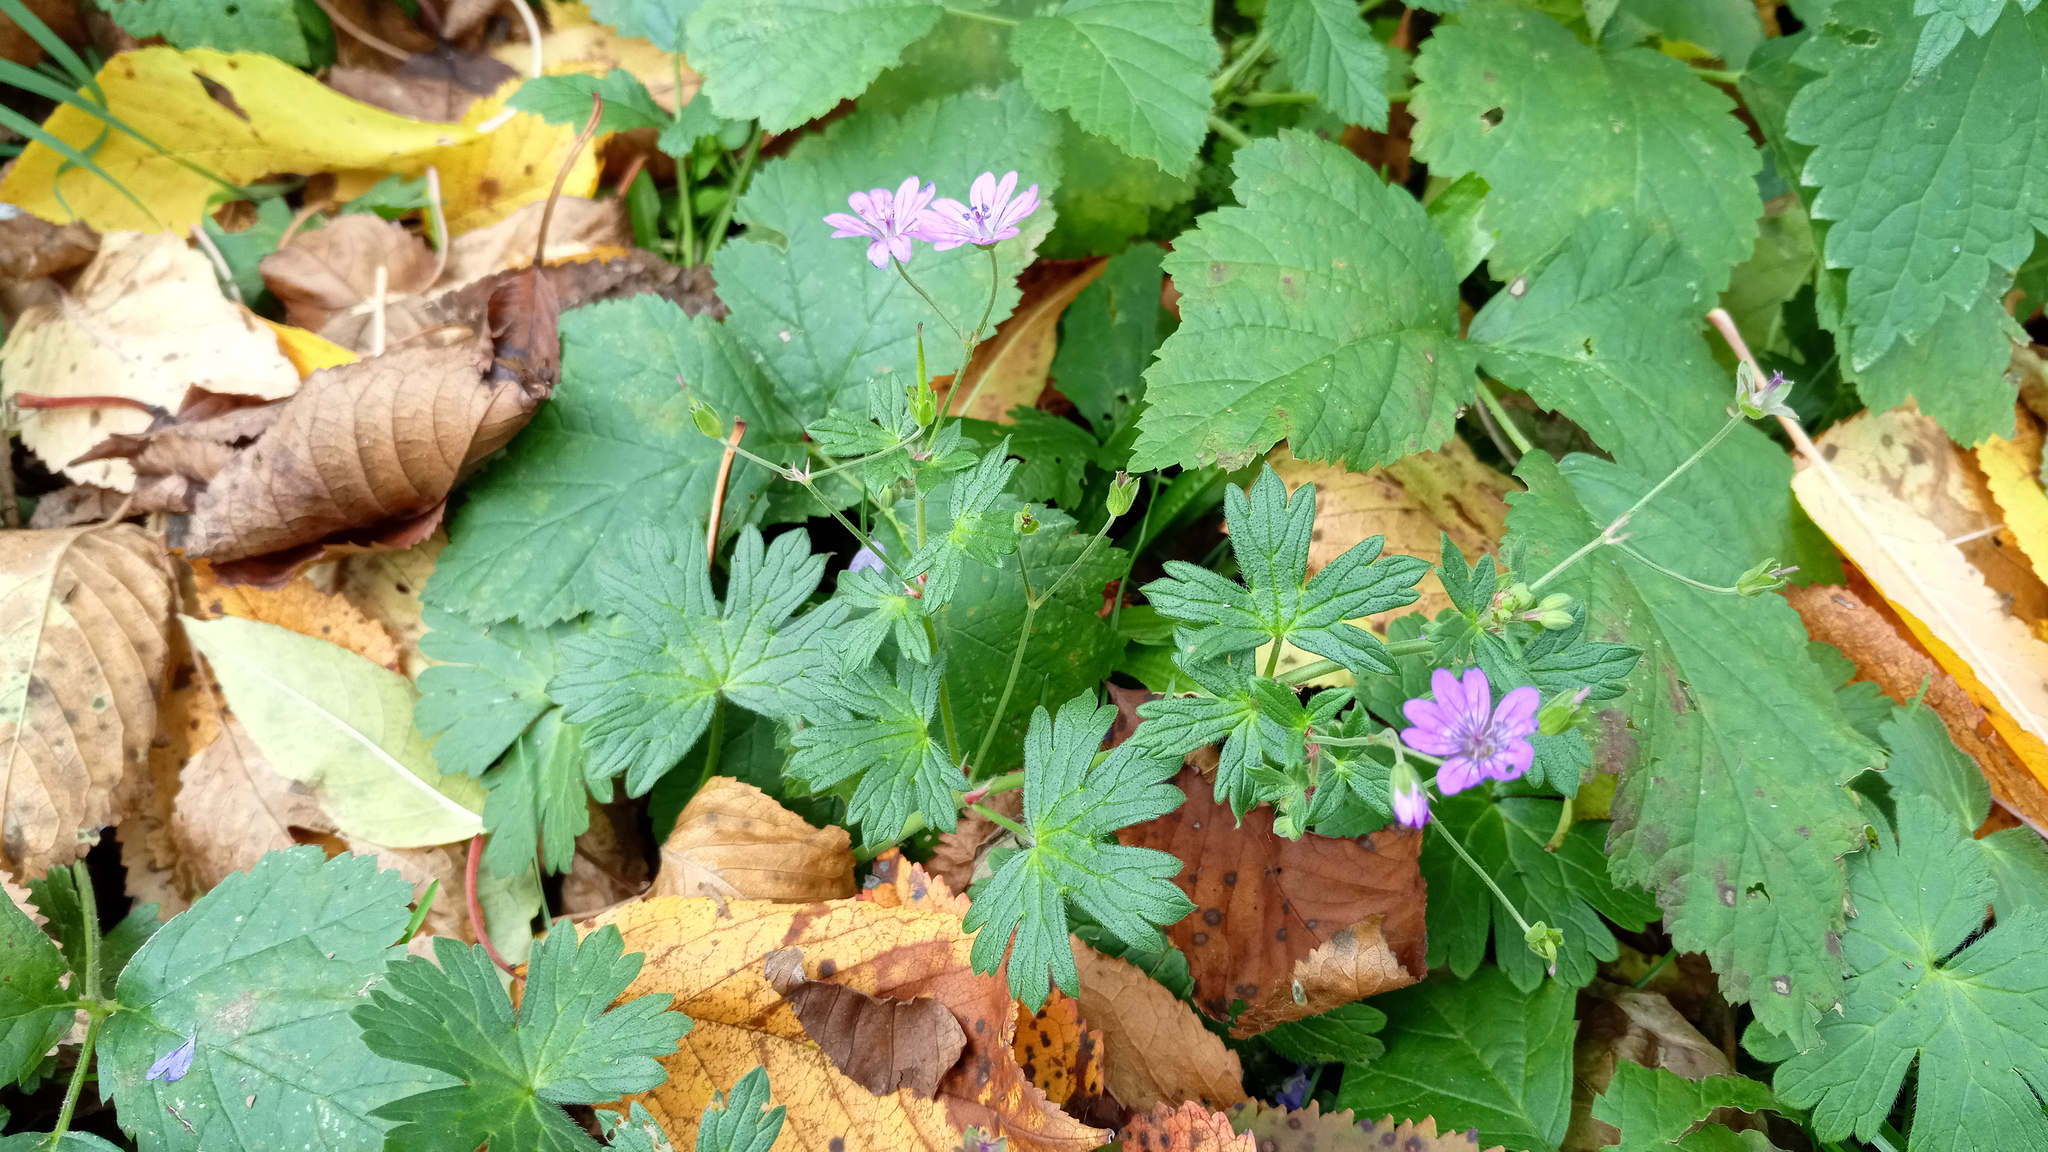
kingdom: Plantae
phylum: Tracheophyta
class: Magnoliopsida
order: Geraniales
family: Geraniaceae
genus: Geranium
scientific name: Geranium pyrenaicum
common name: Hedgerow crane's-bill
